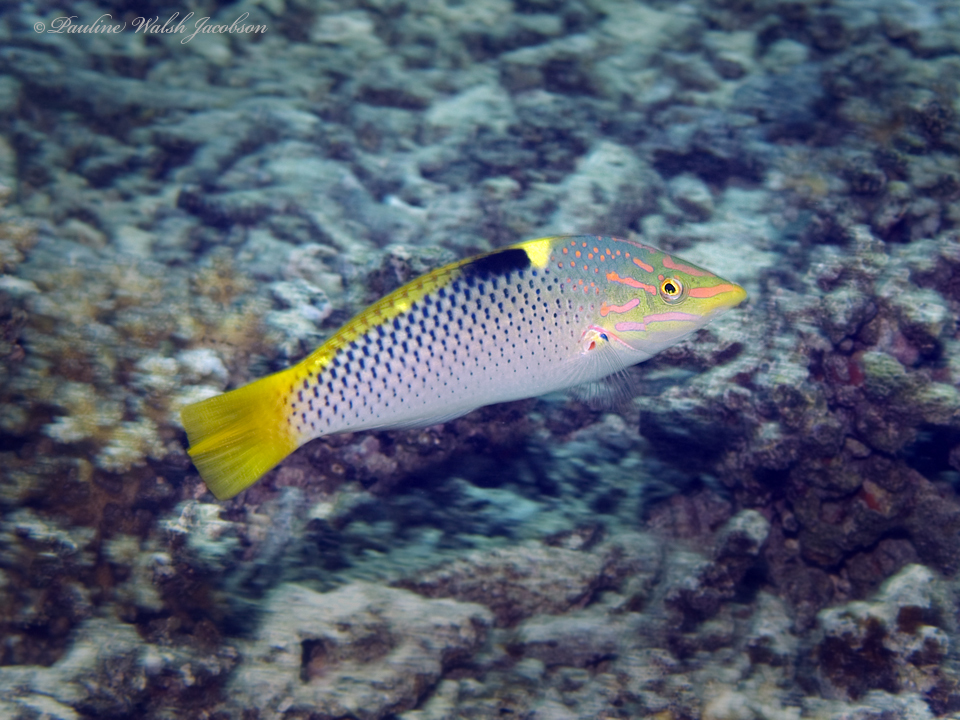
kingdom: Animalia
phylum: Chordata
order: Perciformes
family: Labridae
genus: Halichoeres
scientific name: Halichoeres hortulanus
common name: Checkerboard wrasse
